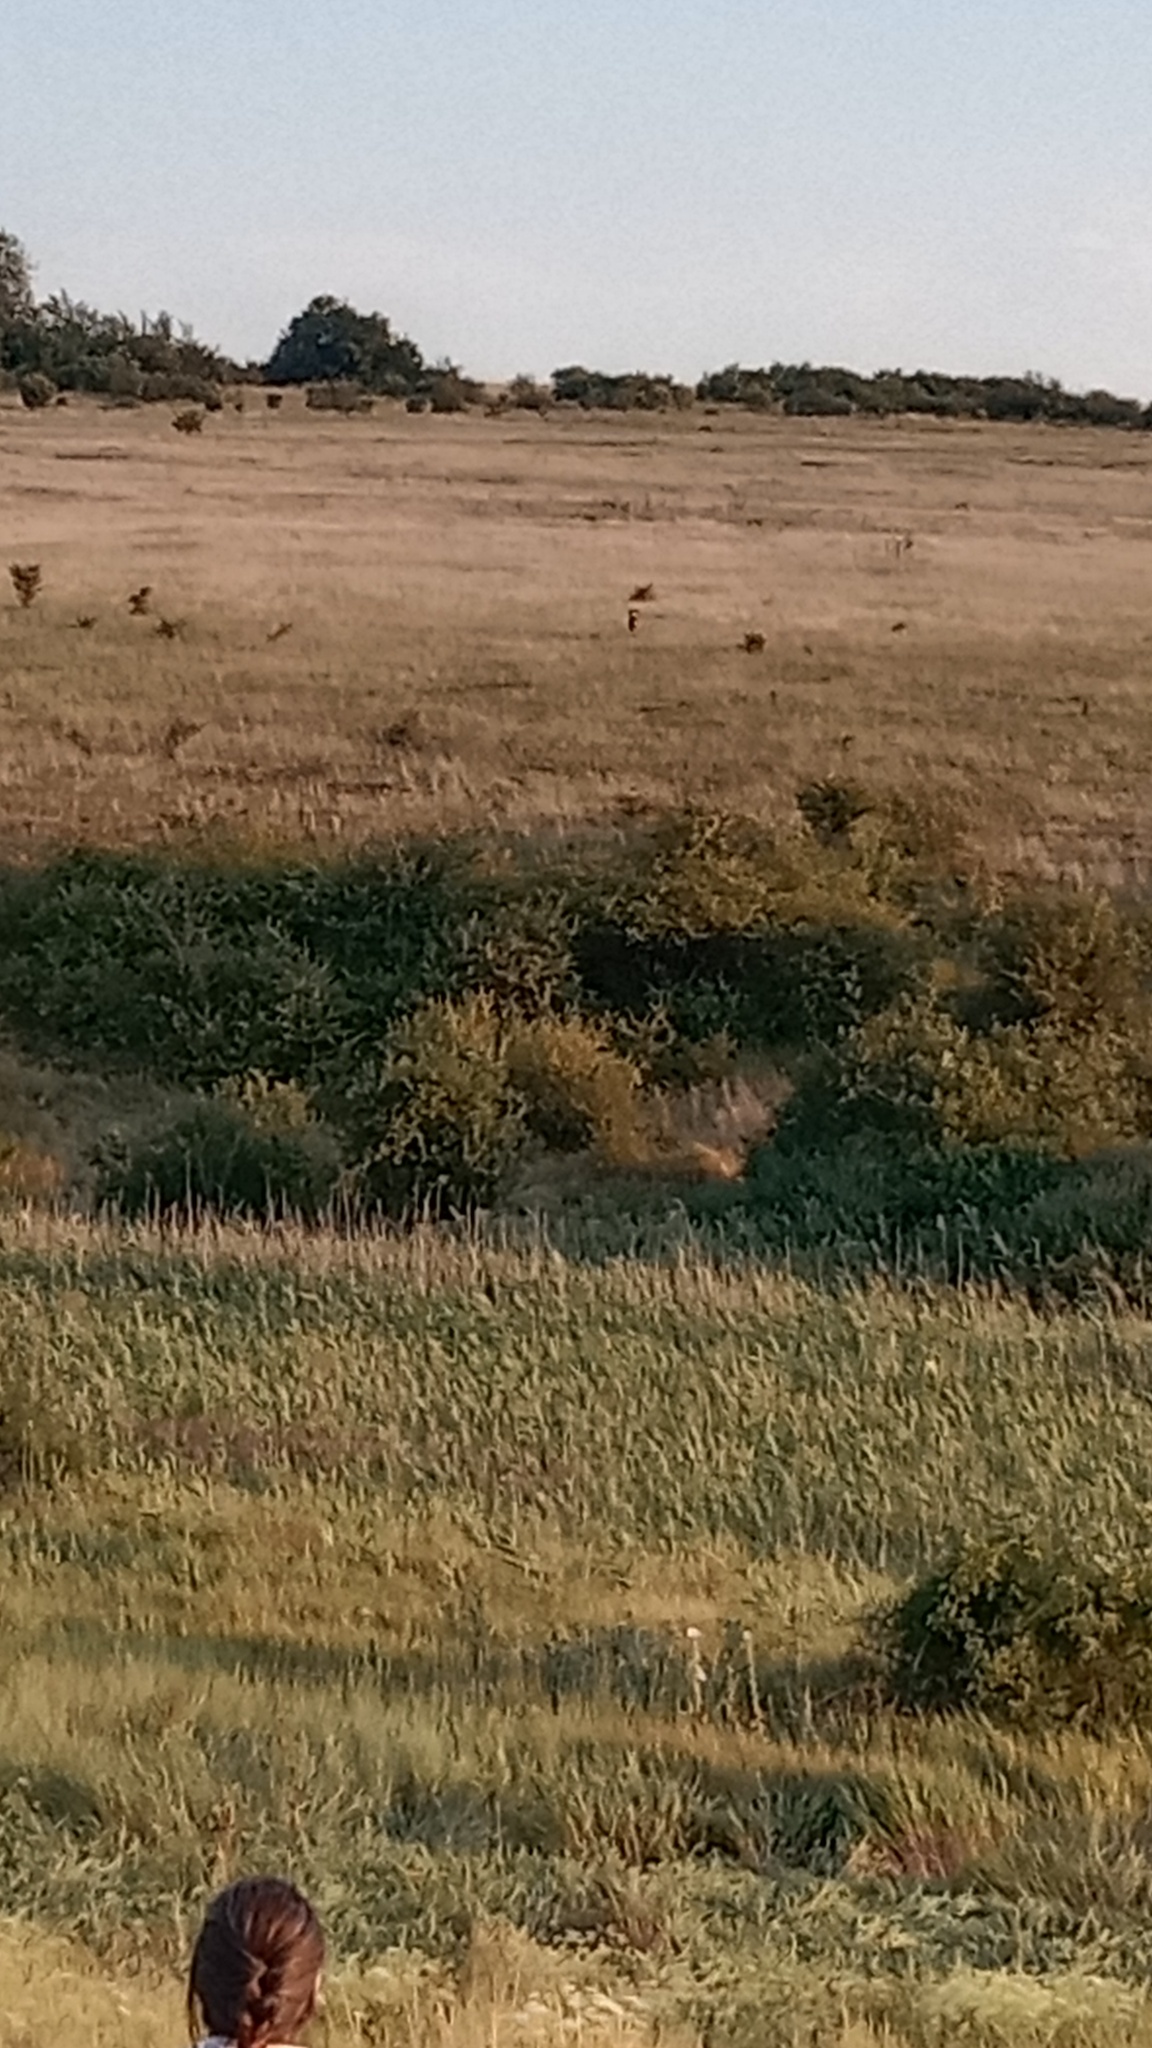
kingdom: Animalia
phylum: Chordata
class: Mammalia
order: Artiodactyla
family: Cervidae
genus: Capreolus
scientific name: Capreolus capreolus
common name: Western roe deer
